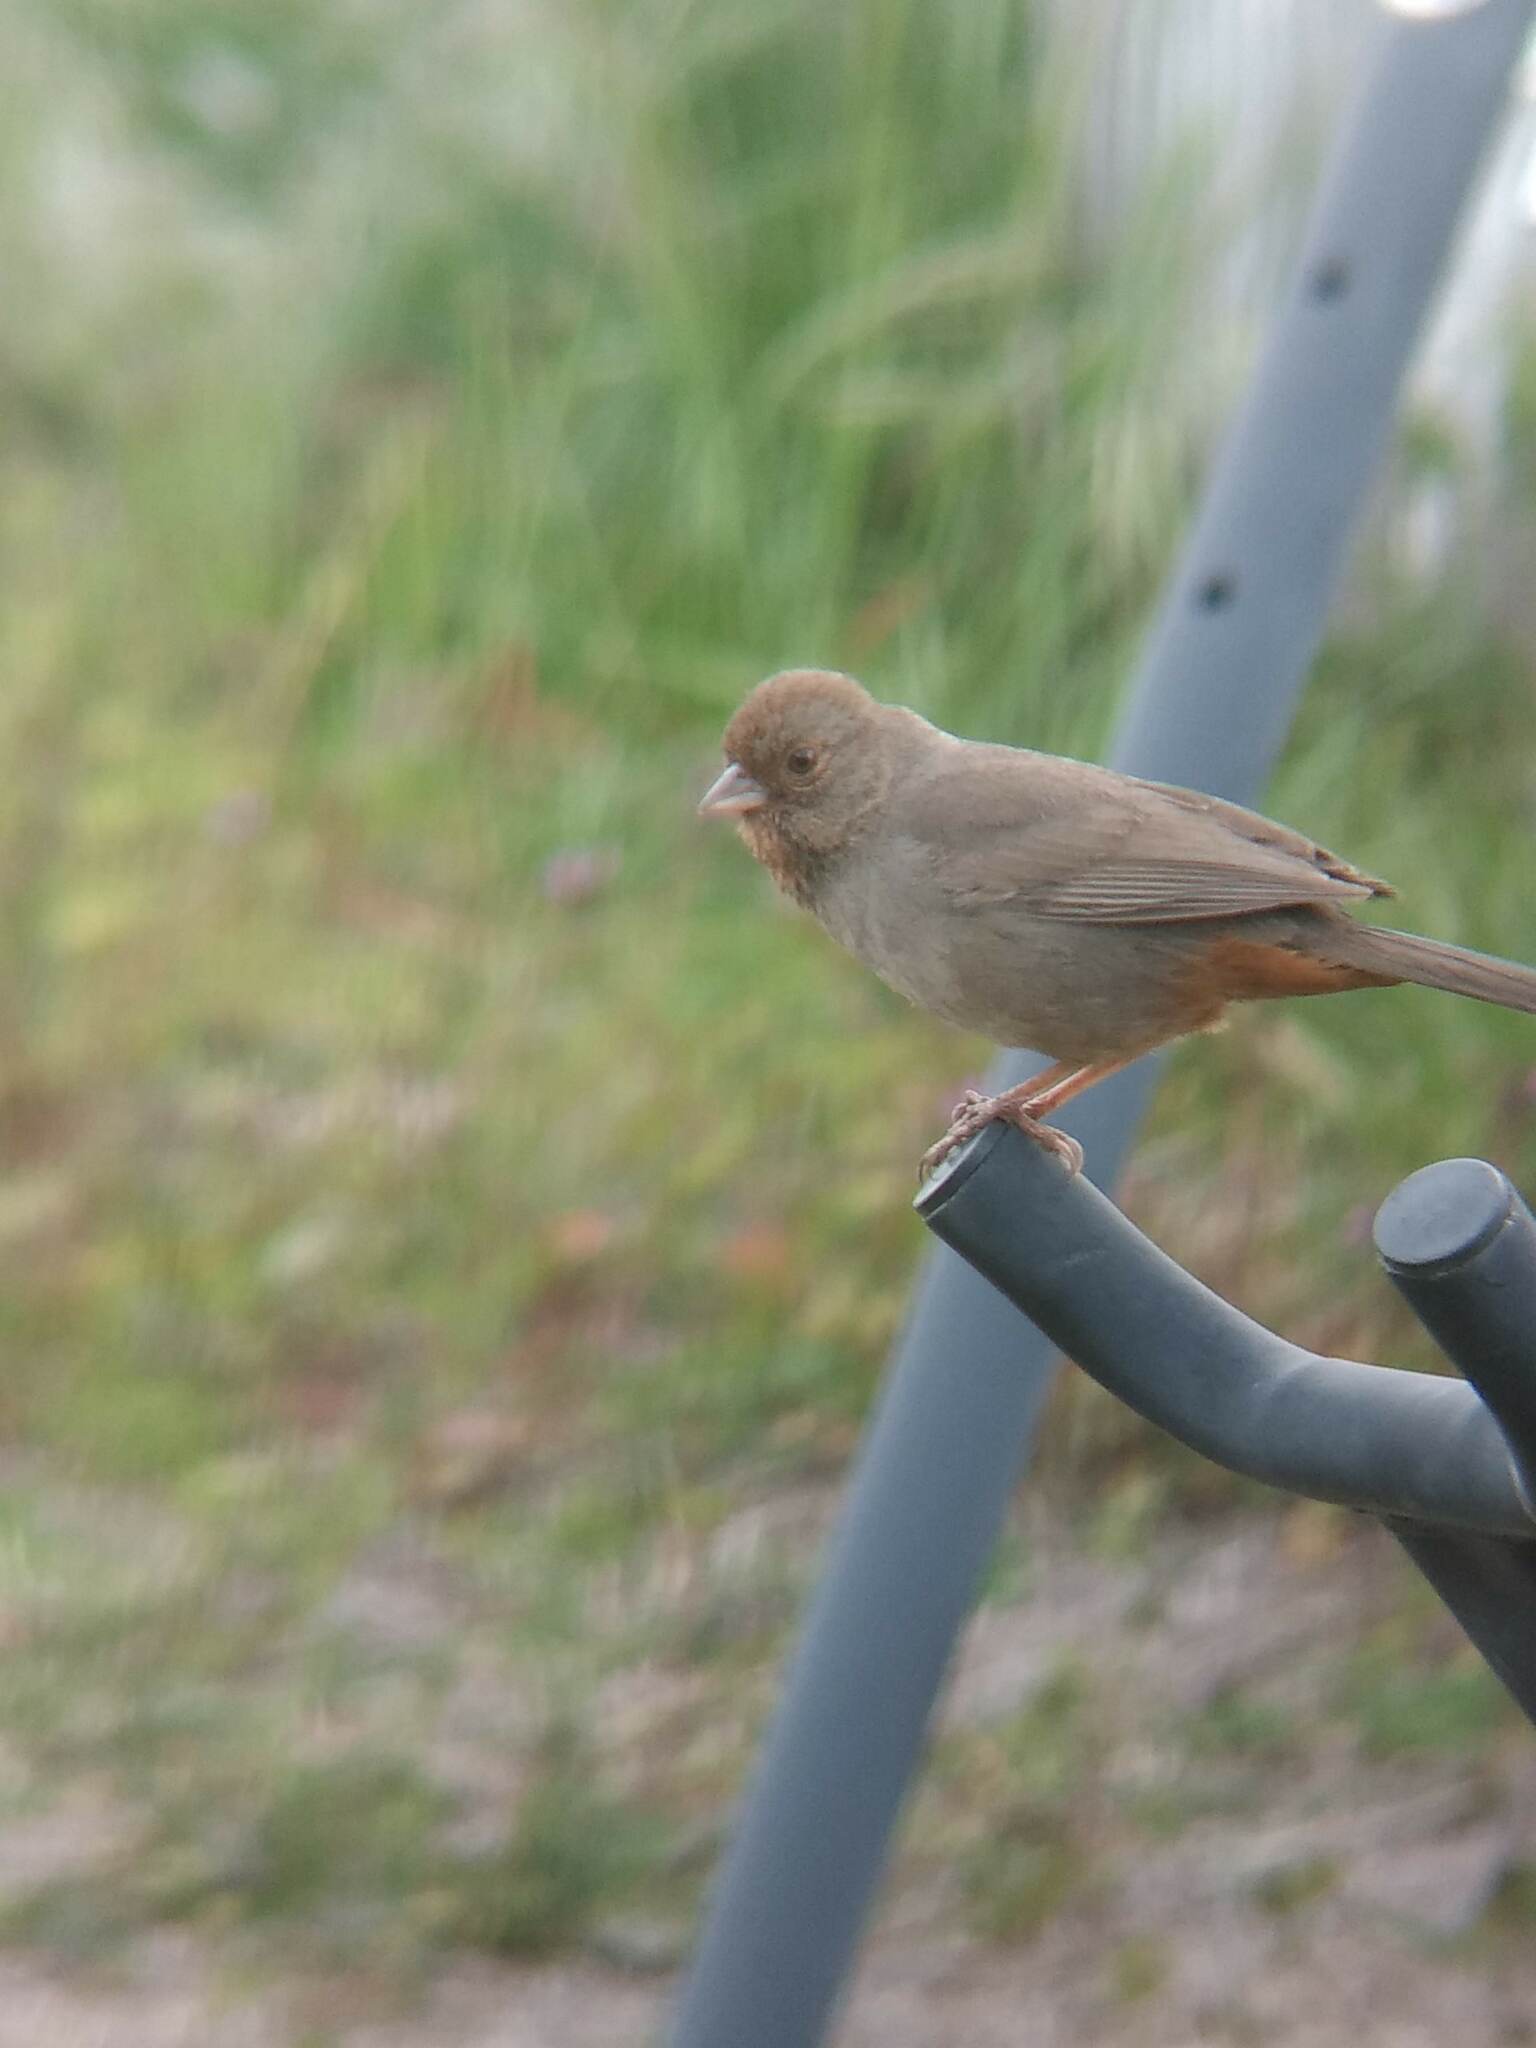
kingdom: Animalia
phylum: Chordata
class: Aves
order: Passeriformes
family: Passerellidae
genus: Melozone
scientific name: Melozone crissalis
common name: California towhee
